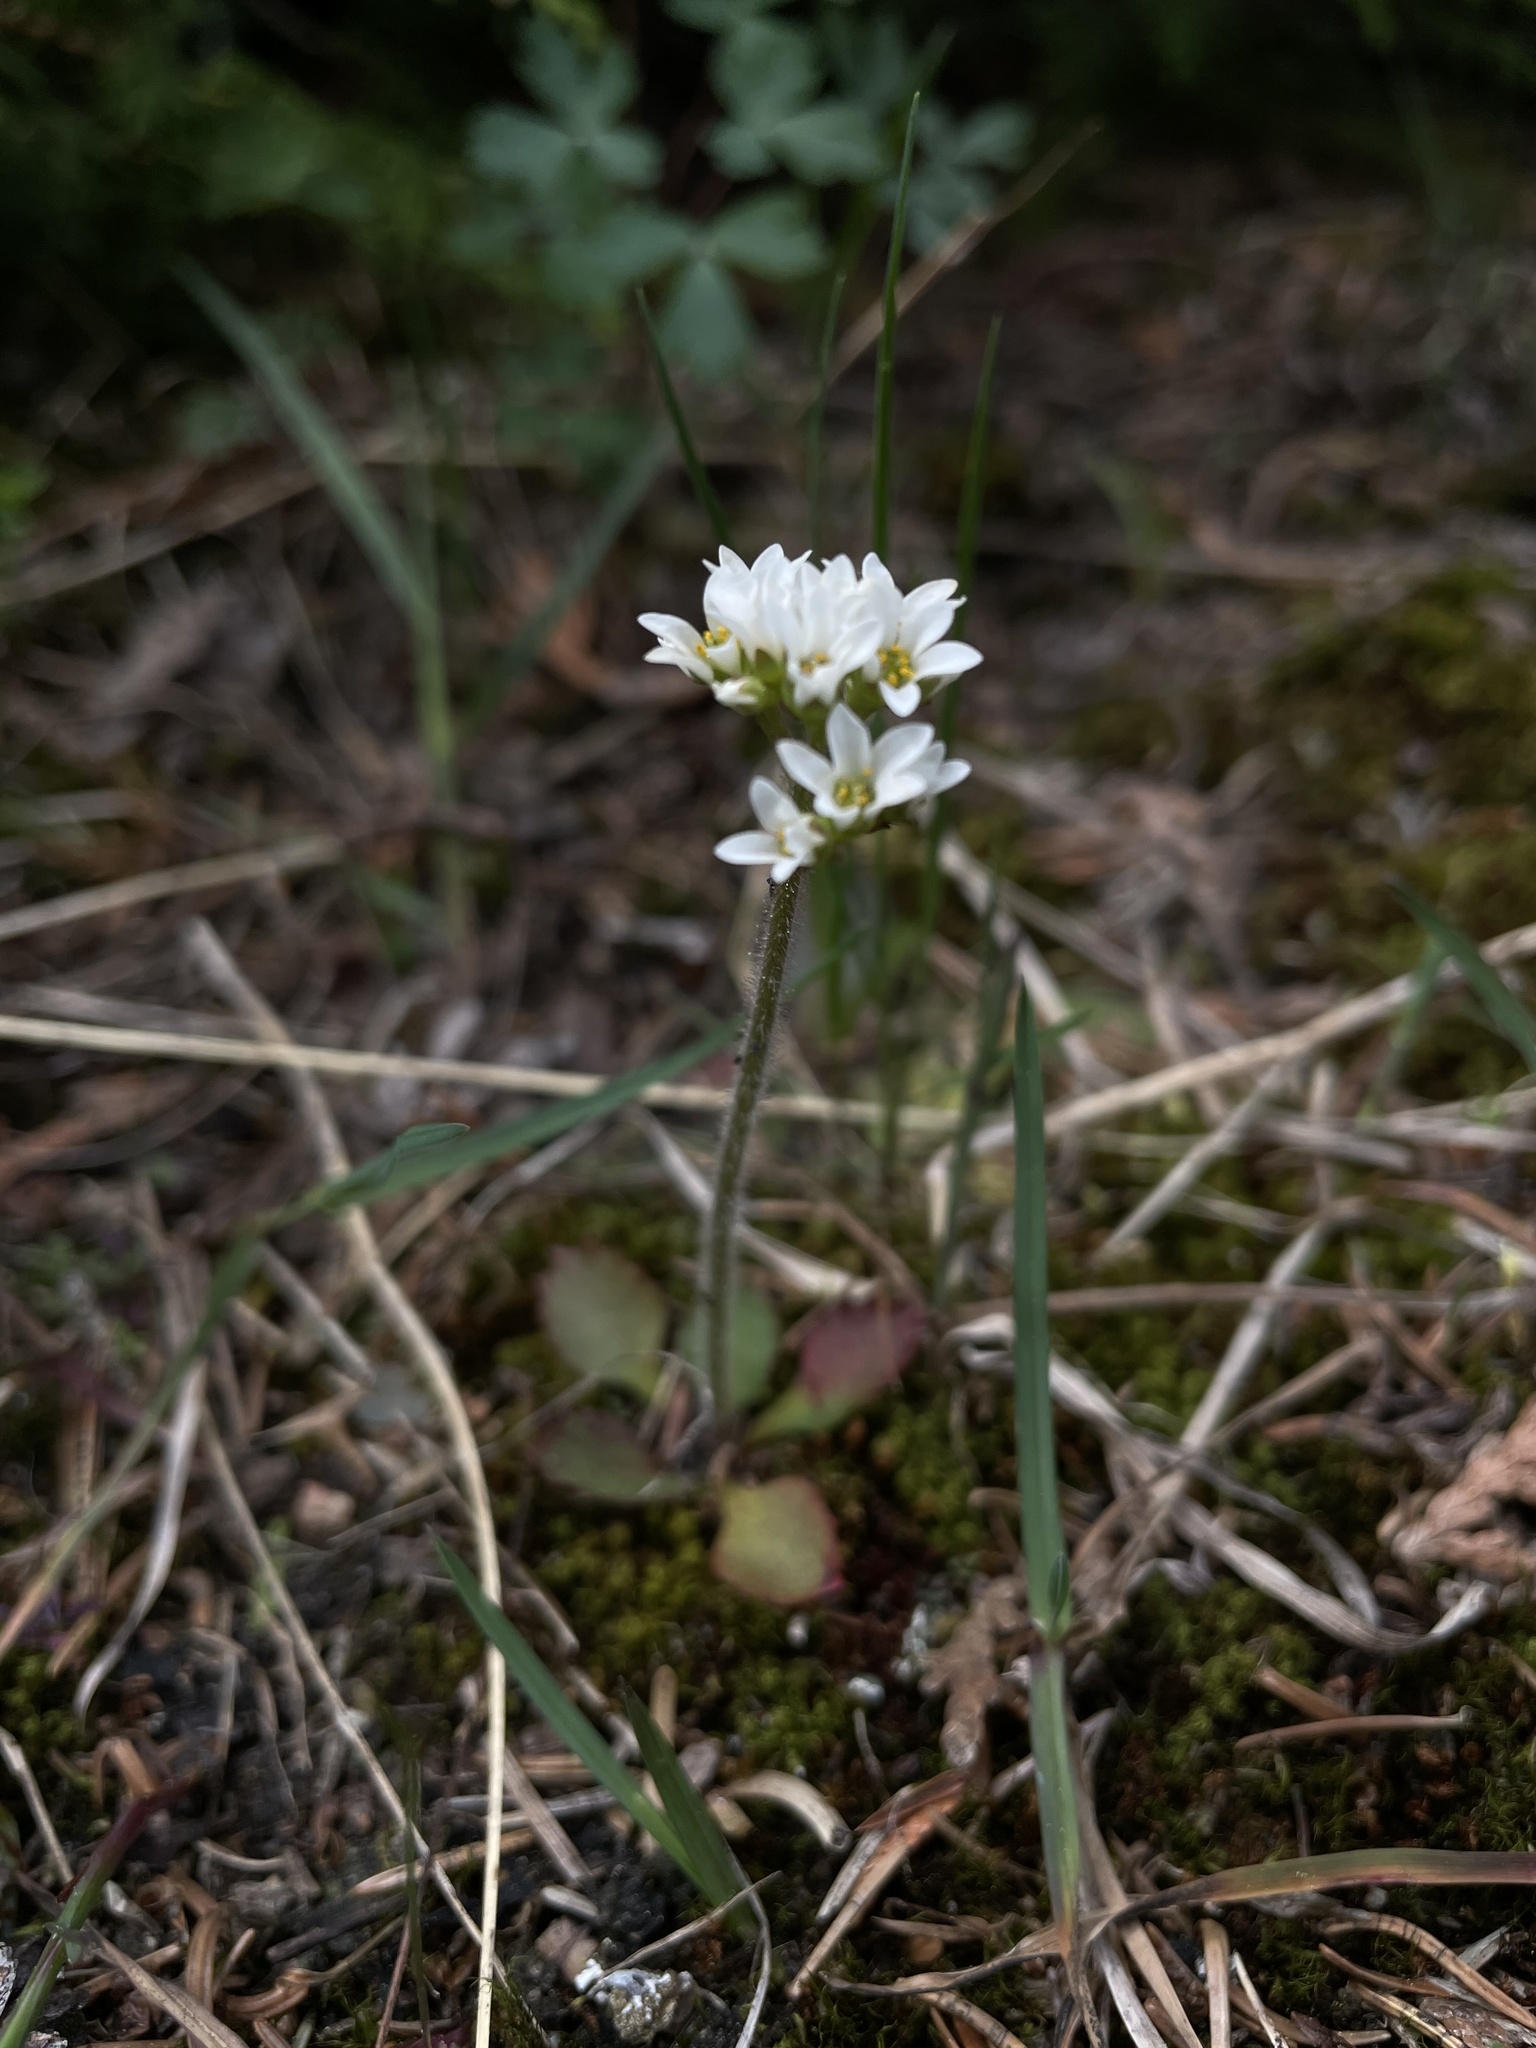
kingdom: Plantae
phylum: Tracheophyta
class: Magnoliopsida
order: Saxifragales
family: Saxifragaceae
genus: Micranthes
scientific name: Micranthes virginiensis
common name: Early saxifrage
